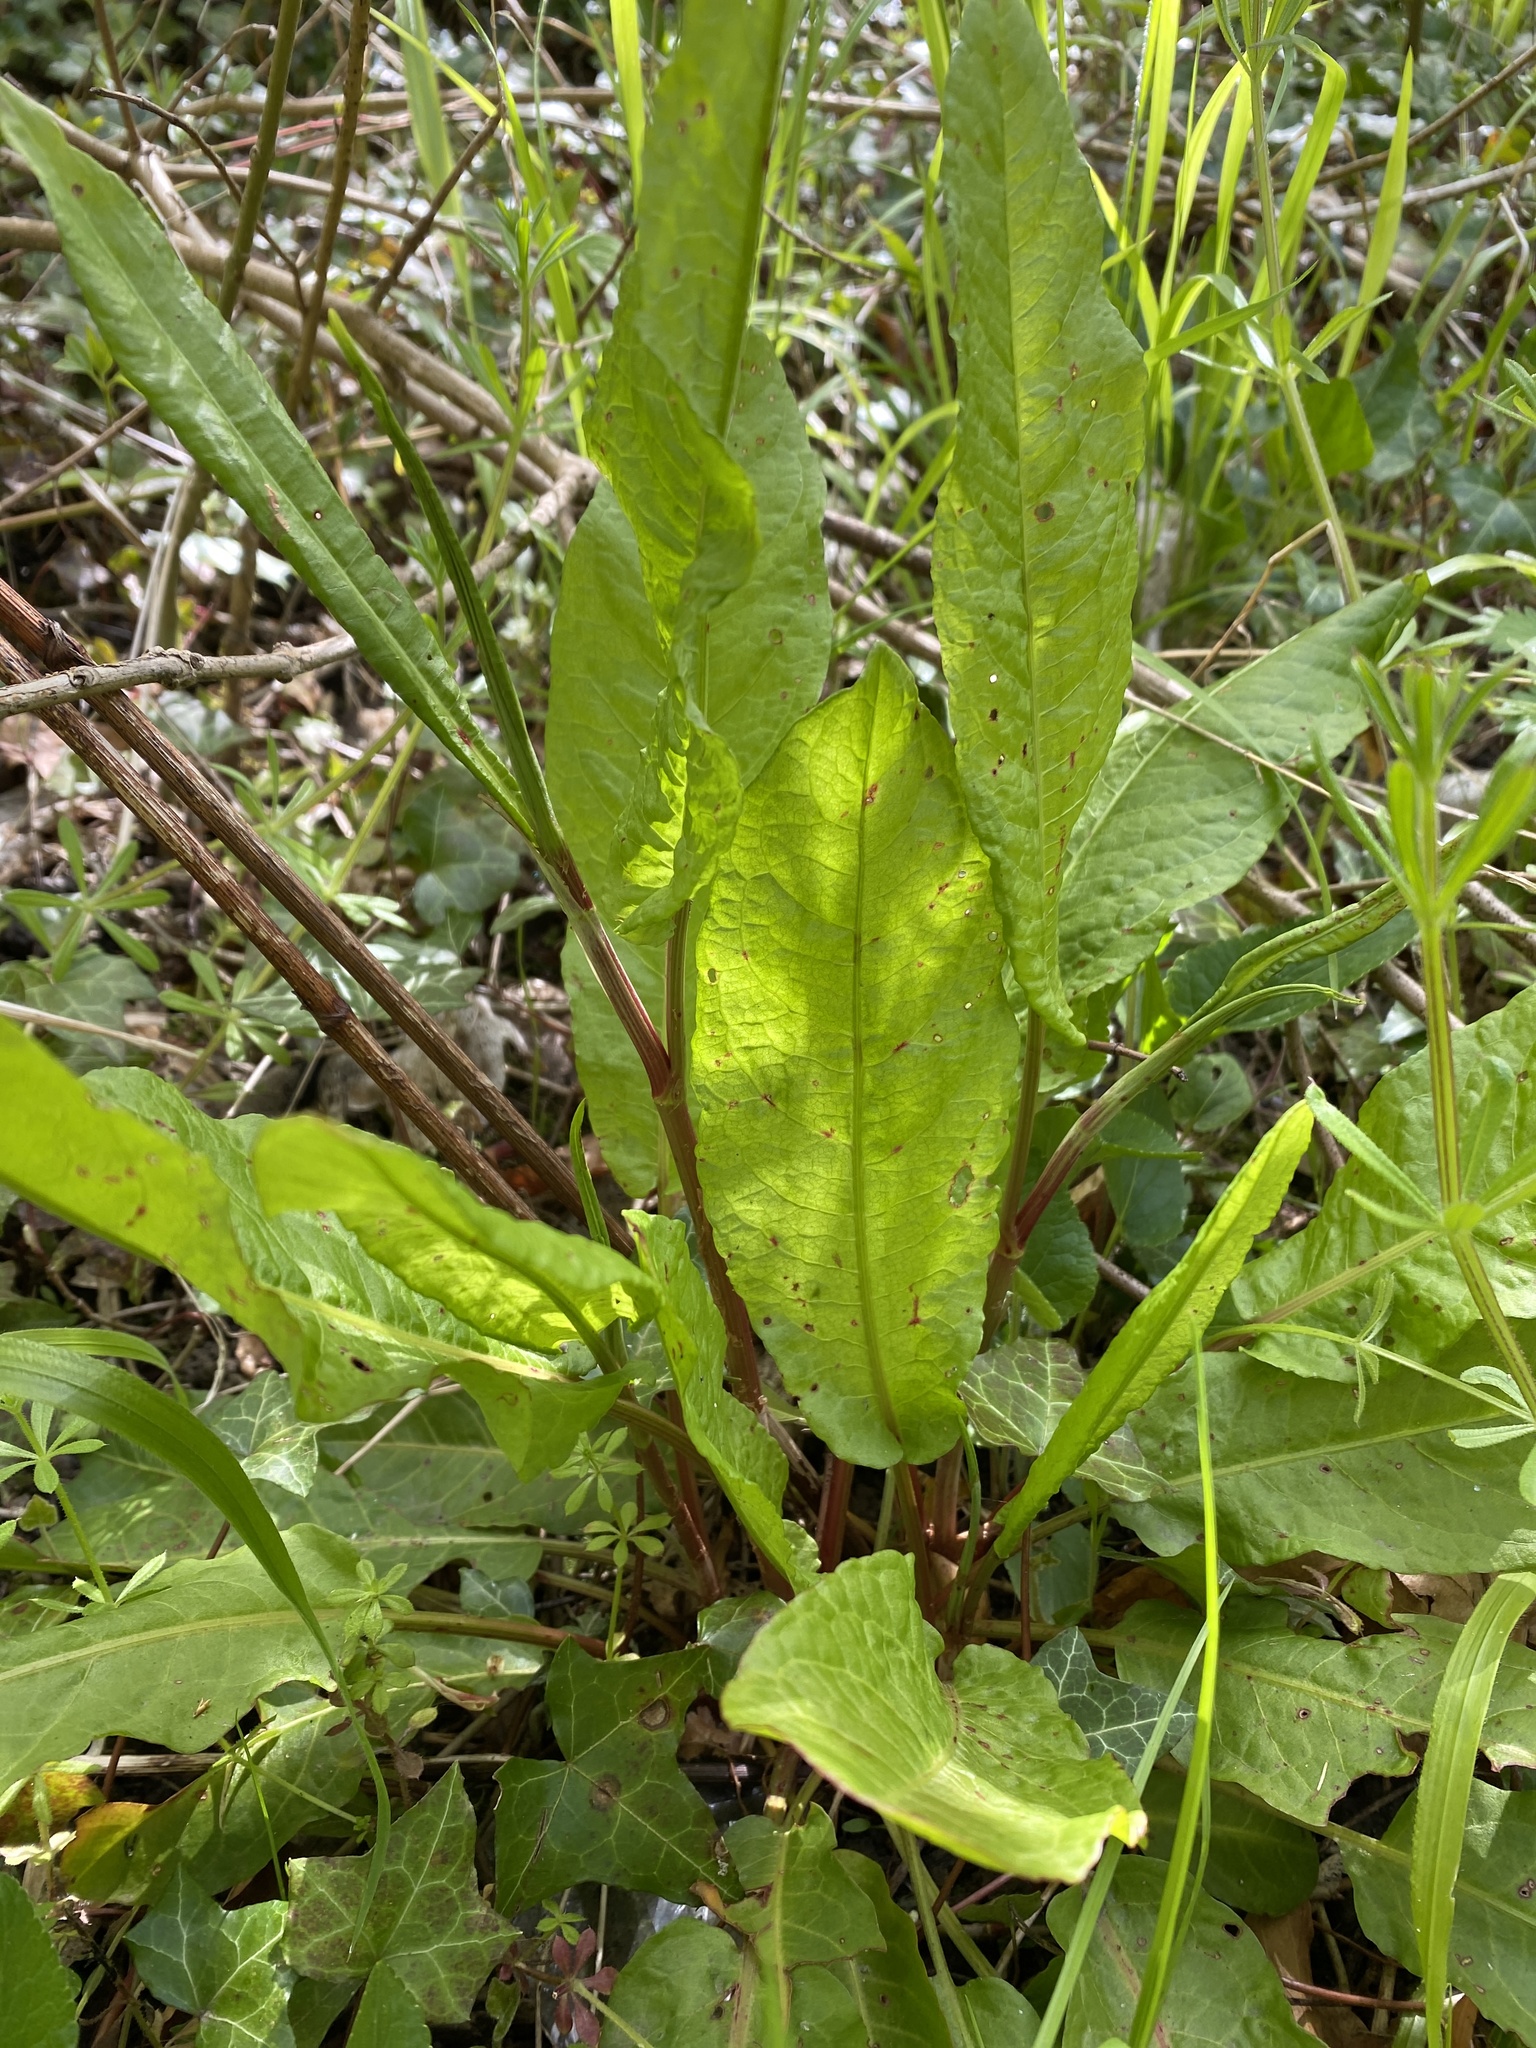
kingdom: Plantae
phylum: Tracheophyta
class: Magnoliopsida
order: Caryophyllales
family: Polygonaceae
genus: Rumex
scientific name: Rumex acetosa
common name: Garden sorrel
